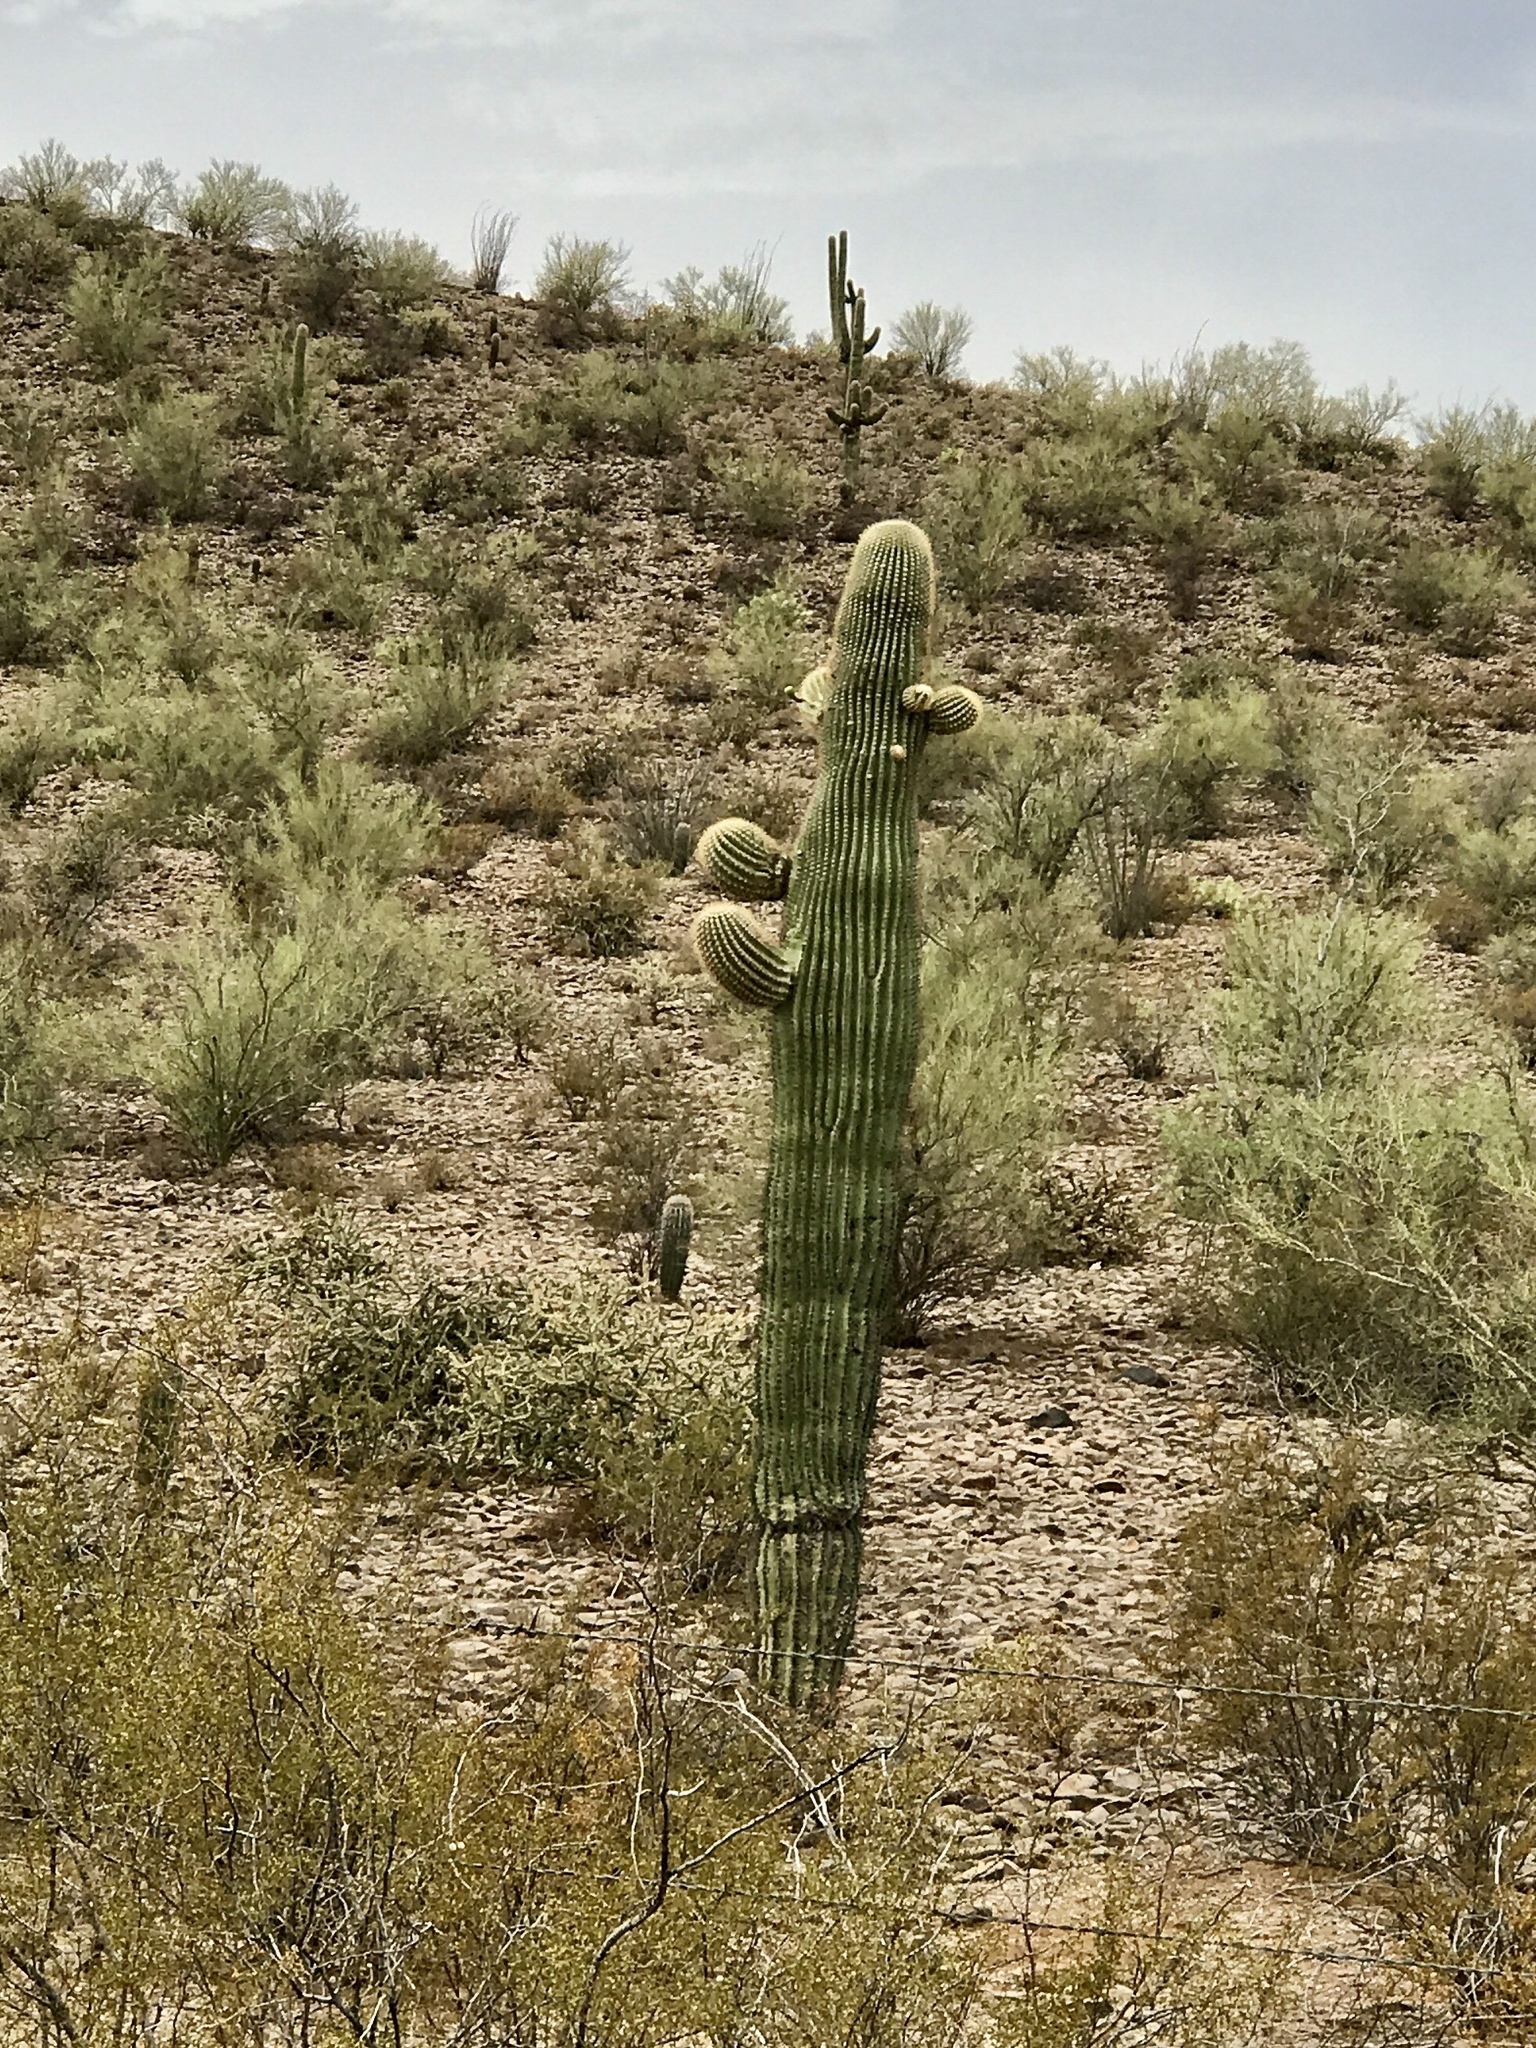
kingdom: Plantae
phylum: Tracheophyta
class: Magnoliopsida
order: Caryophyllales
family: Cactaceae
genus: Carnegiea
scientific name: Carnegiea gigantea
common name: Saguaro
